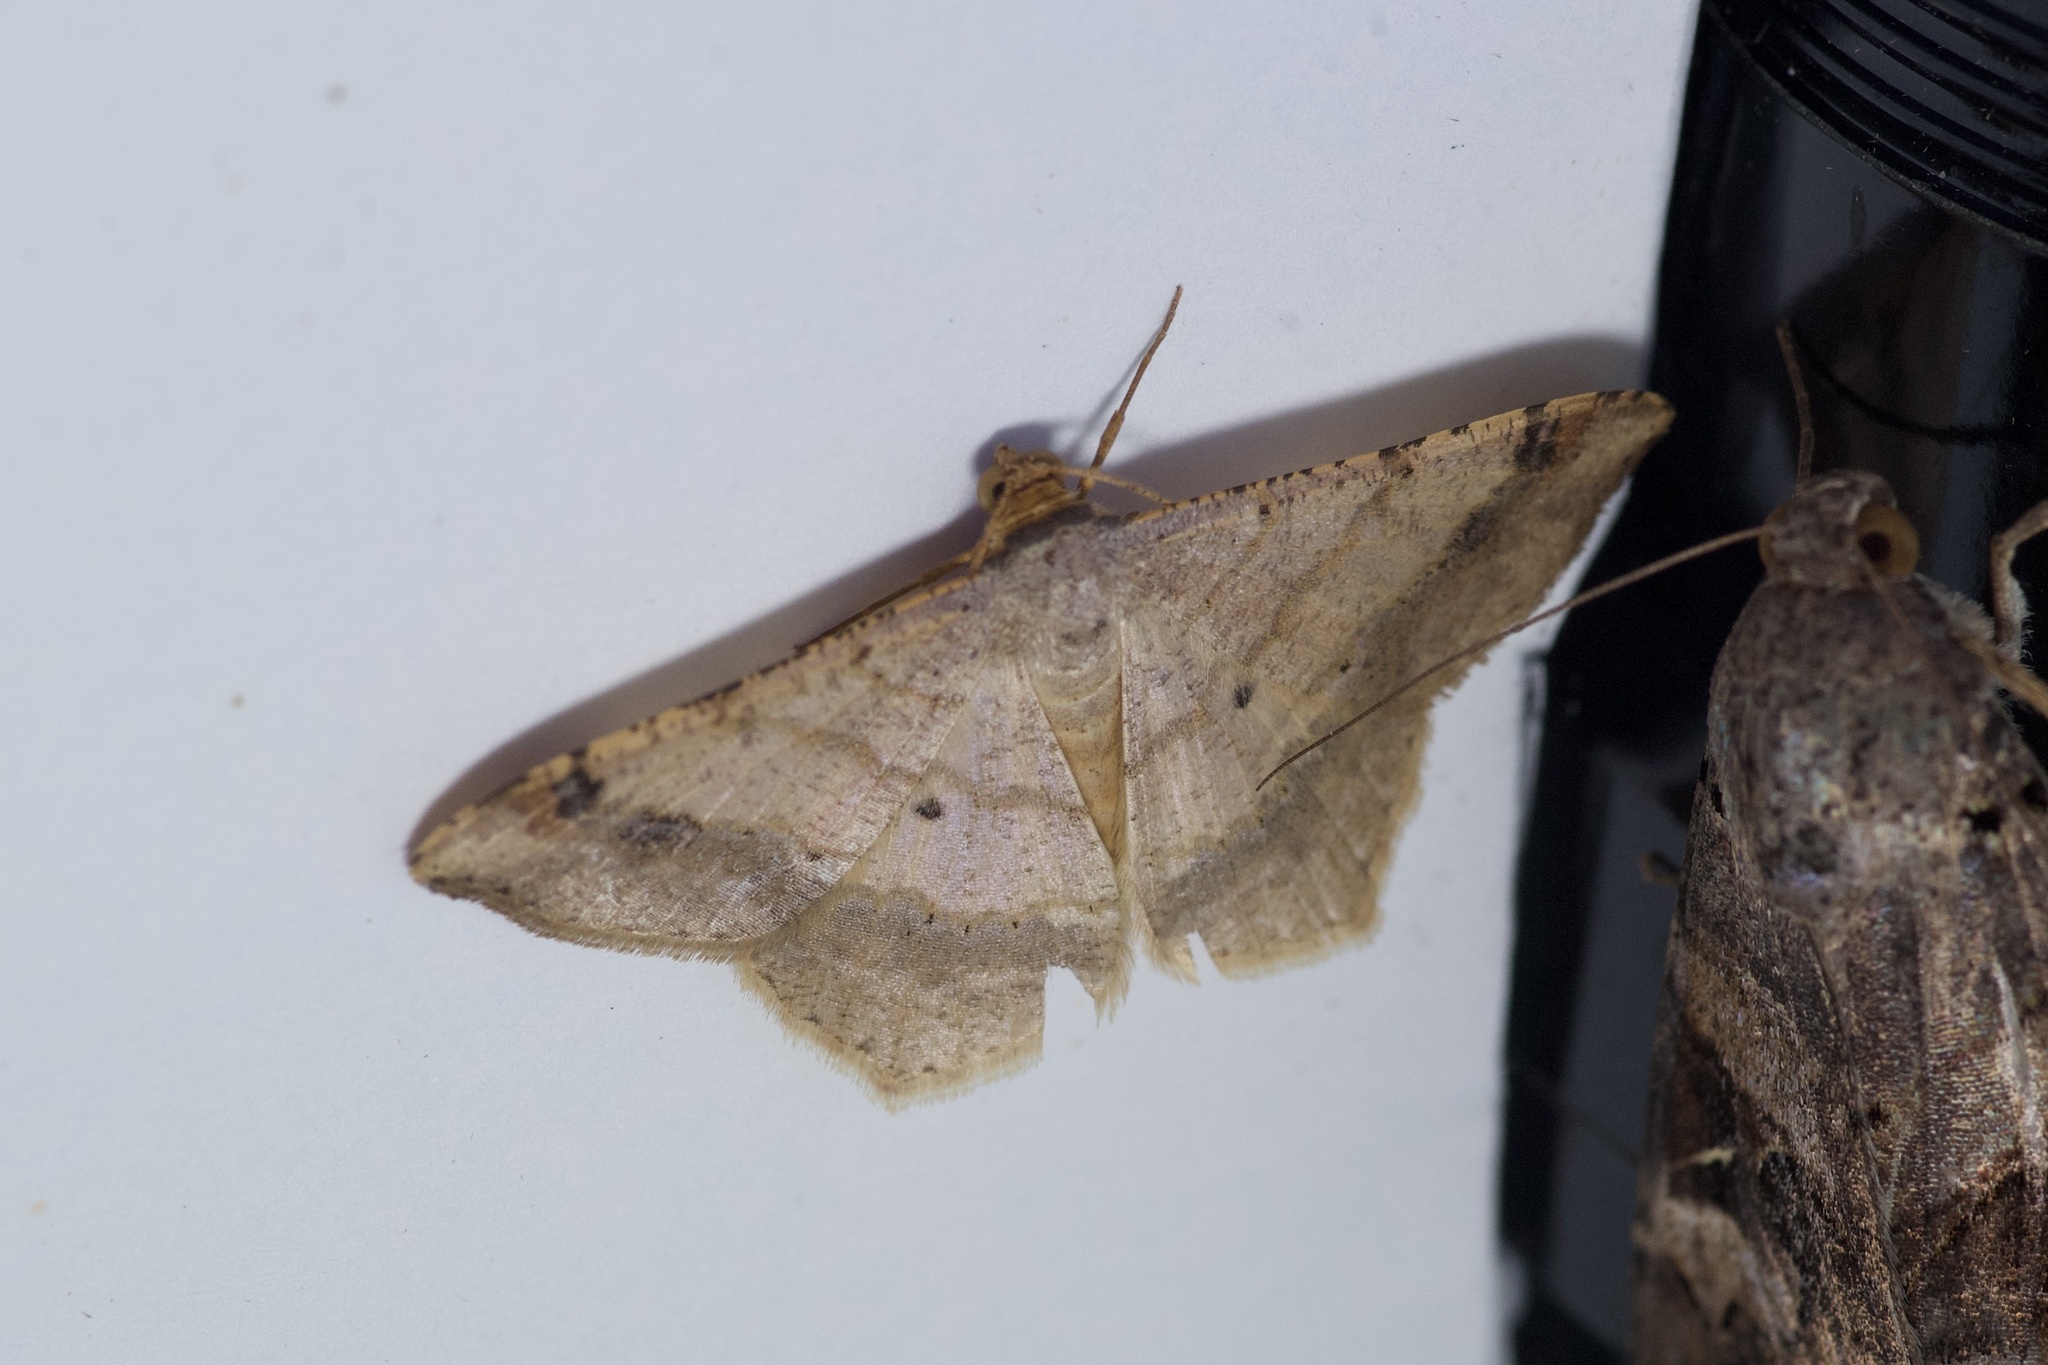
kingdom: Animalia
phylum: Arthropoda
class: Insecta
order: Lepidoptera
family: Geometridae
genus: Macaria
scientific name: Macaria abydata
